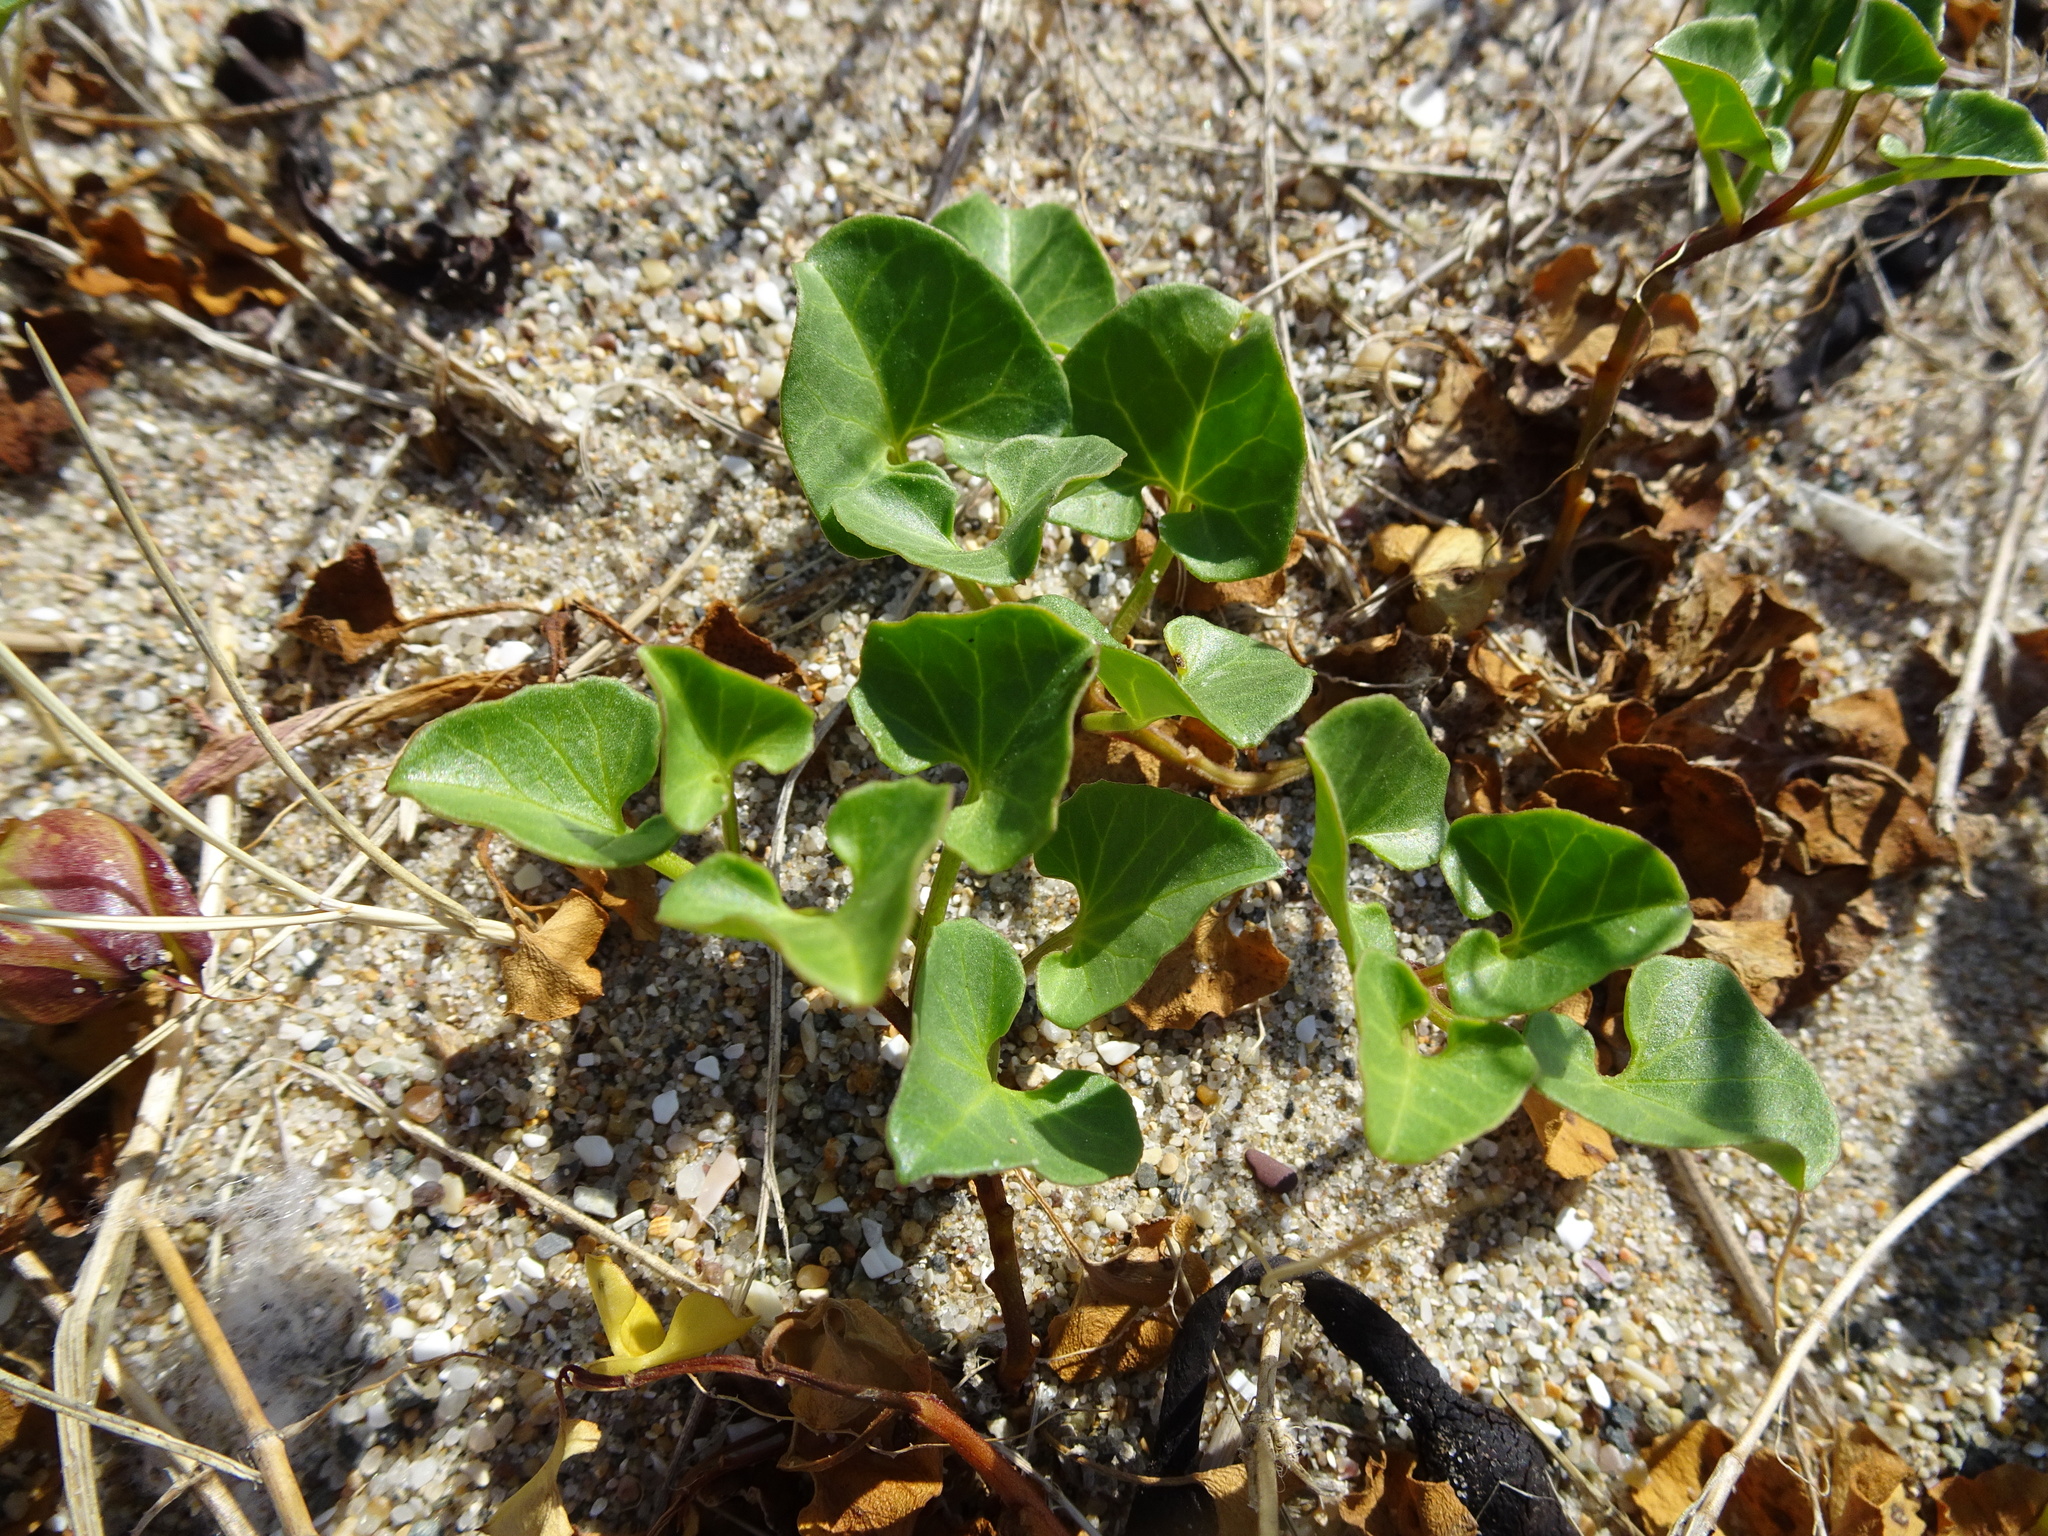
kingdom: Plantae
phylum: Tracheophyta
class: Magnoliopsida
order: Solanales
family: Convolvulaceae
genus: Calystegia
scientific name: Calystegia soldanella
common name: Sea bindweed
